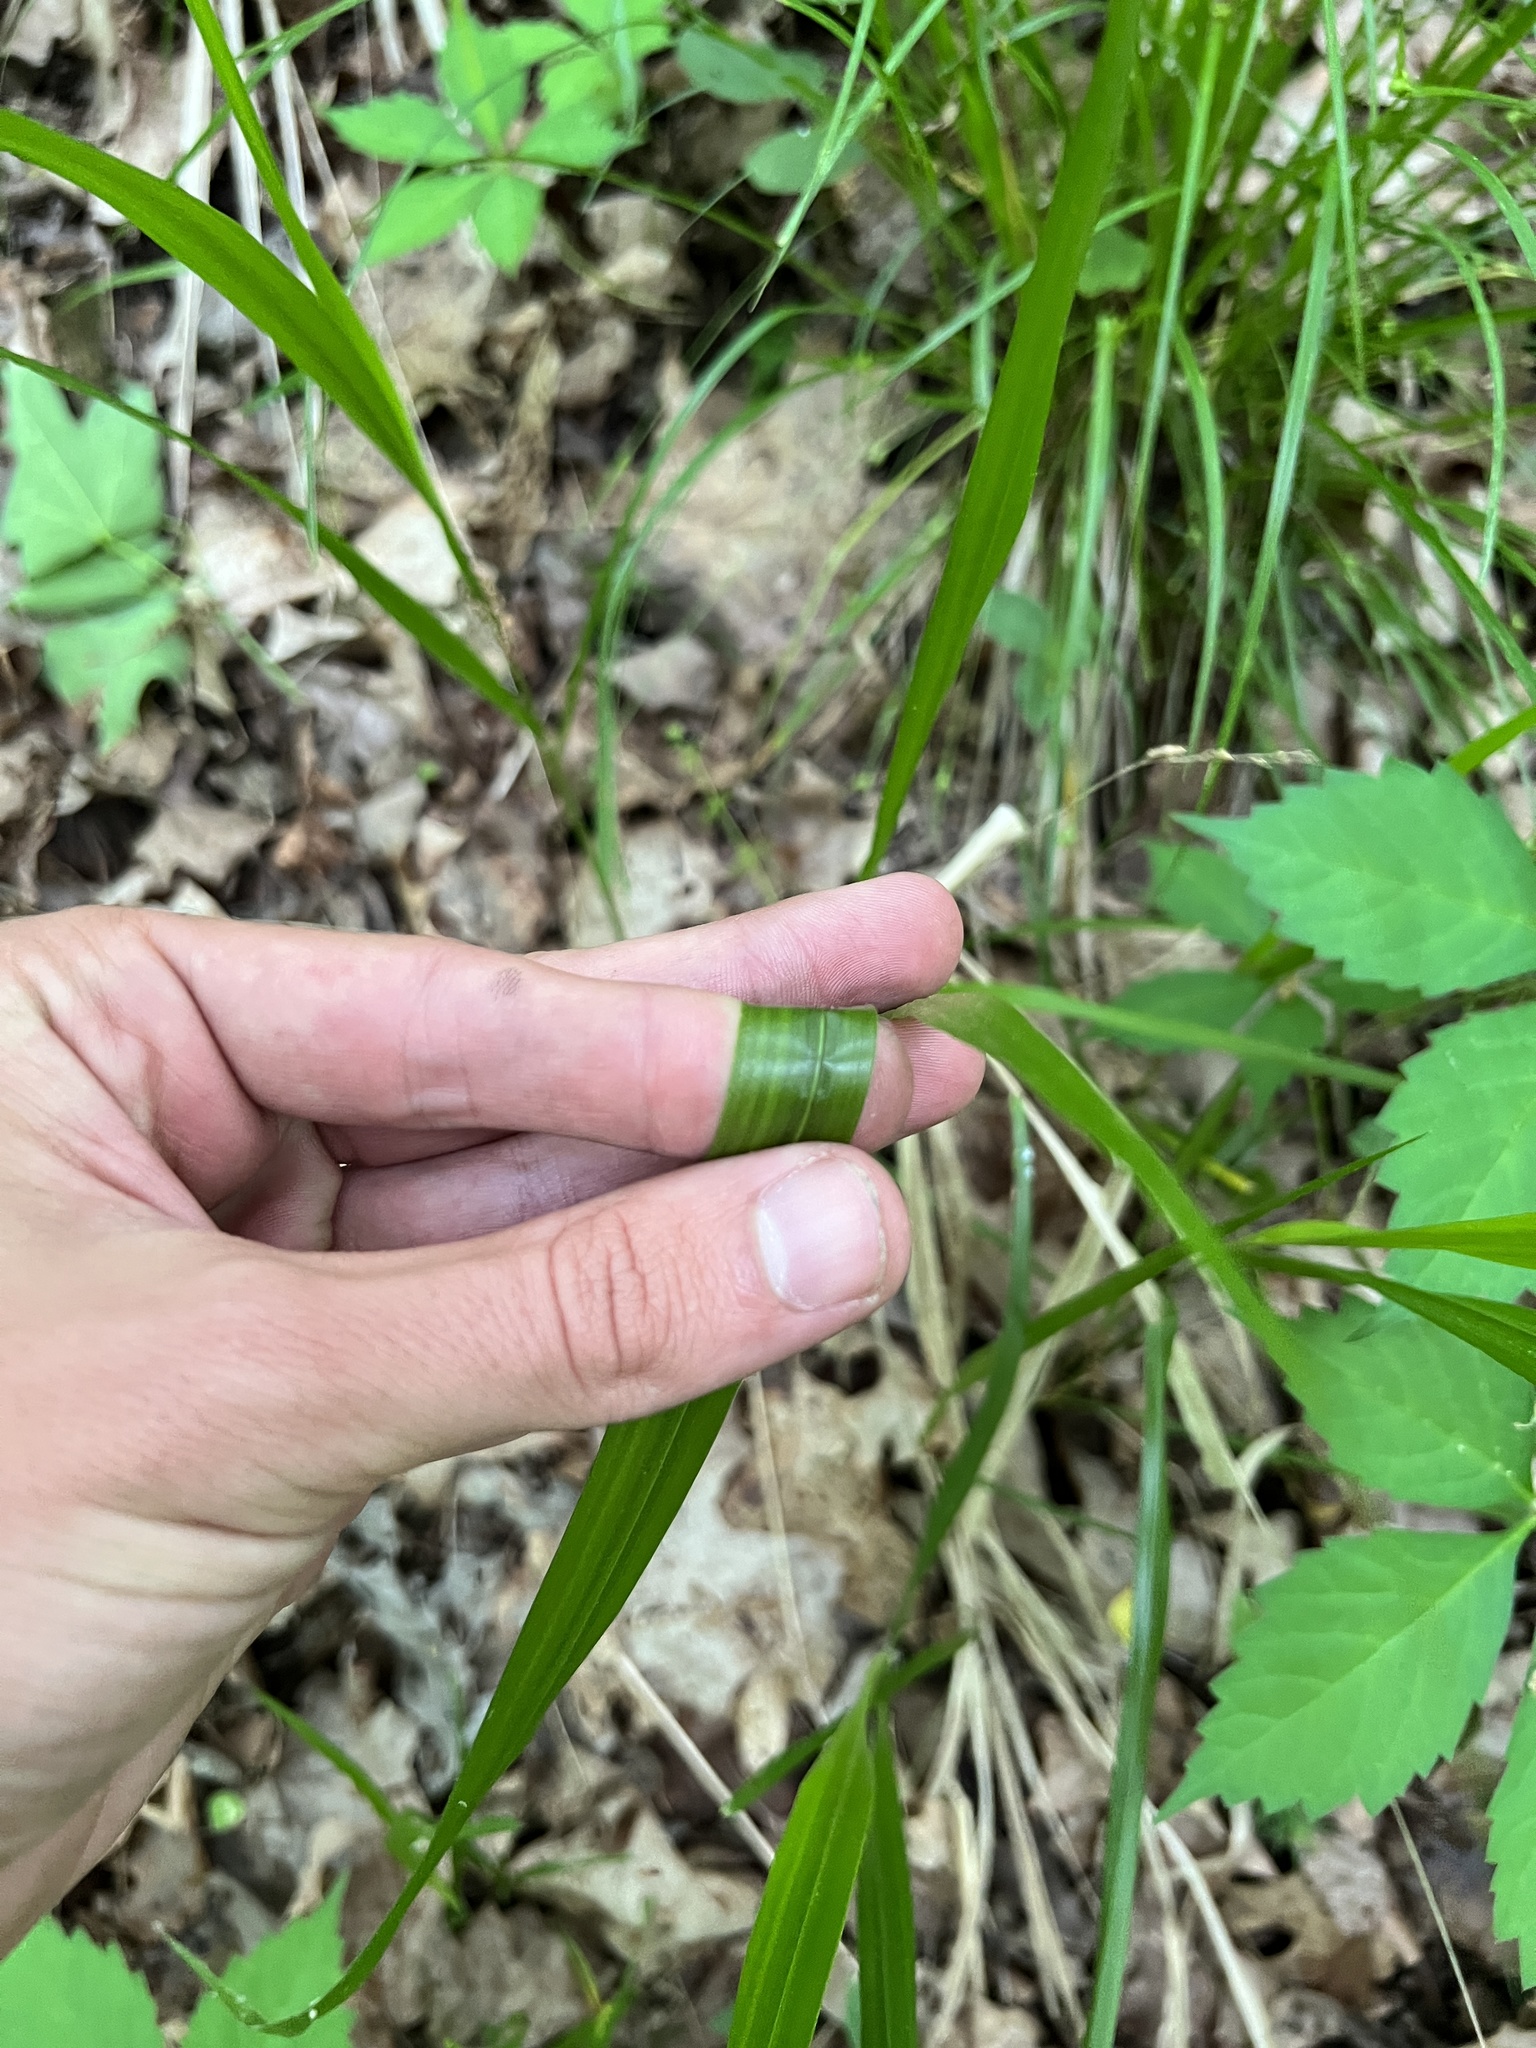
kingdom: Plantae
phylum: Tracheophyta
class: Liliopsida
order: Poales
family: Poaceae
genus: Diarrhena
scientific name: Diarrhena obovata
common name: Beakgrass
